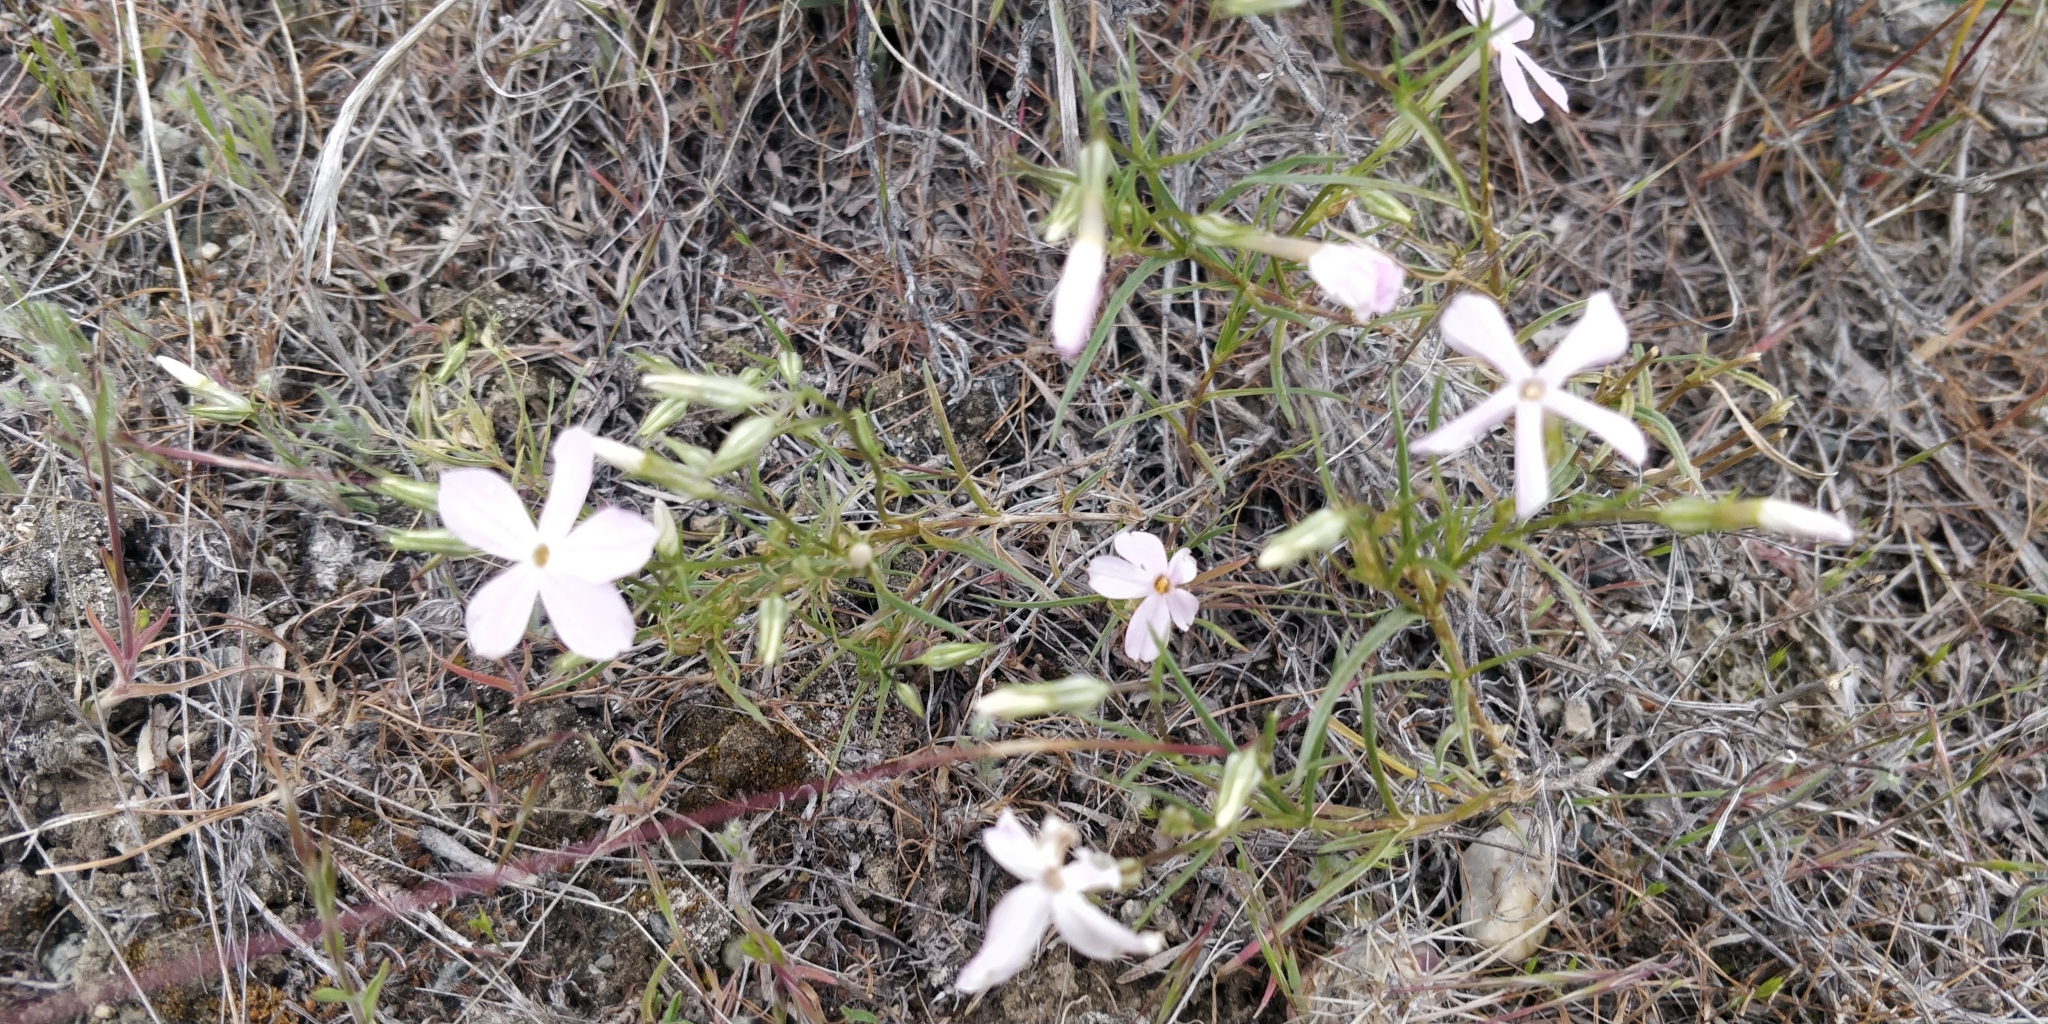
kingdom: Plantae
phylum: Tracheophyta
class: Magnoliopsida
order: Ericales
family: Polemoniaceae
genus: Phlox
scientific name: Phlox longifolia
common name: Longleaf phlox
